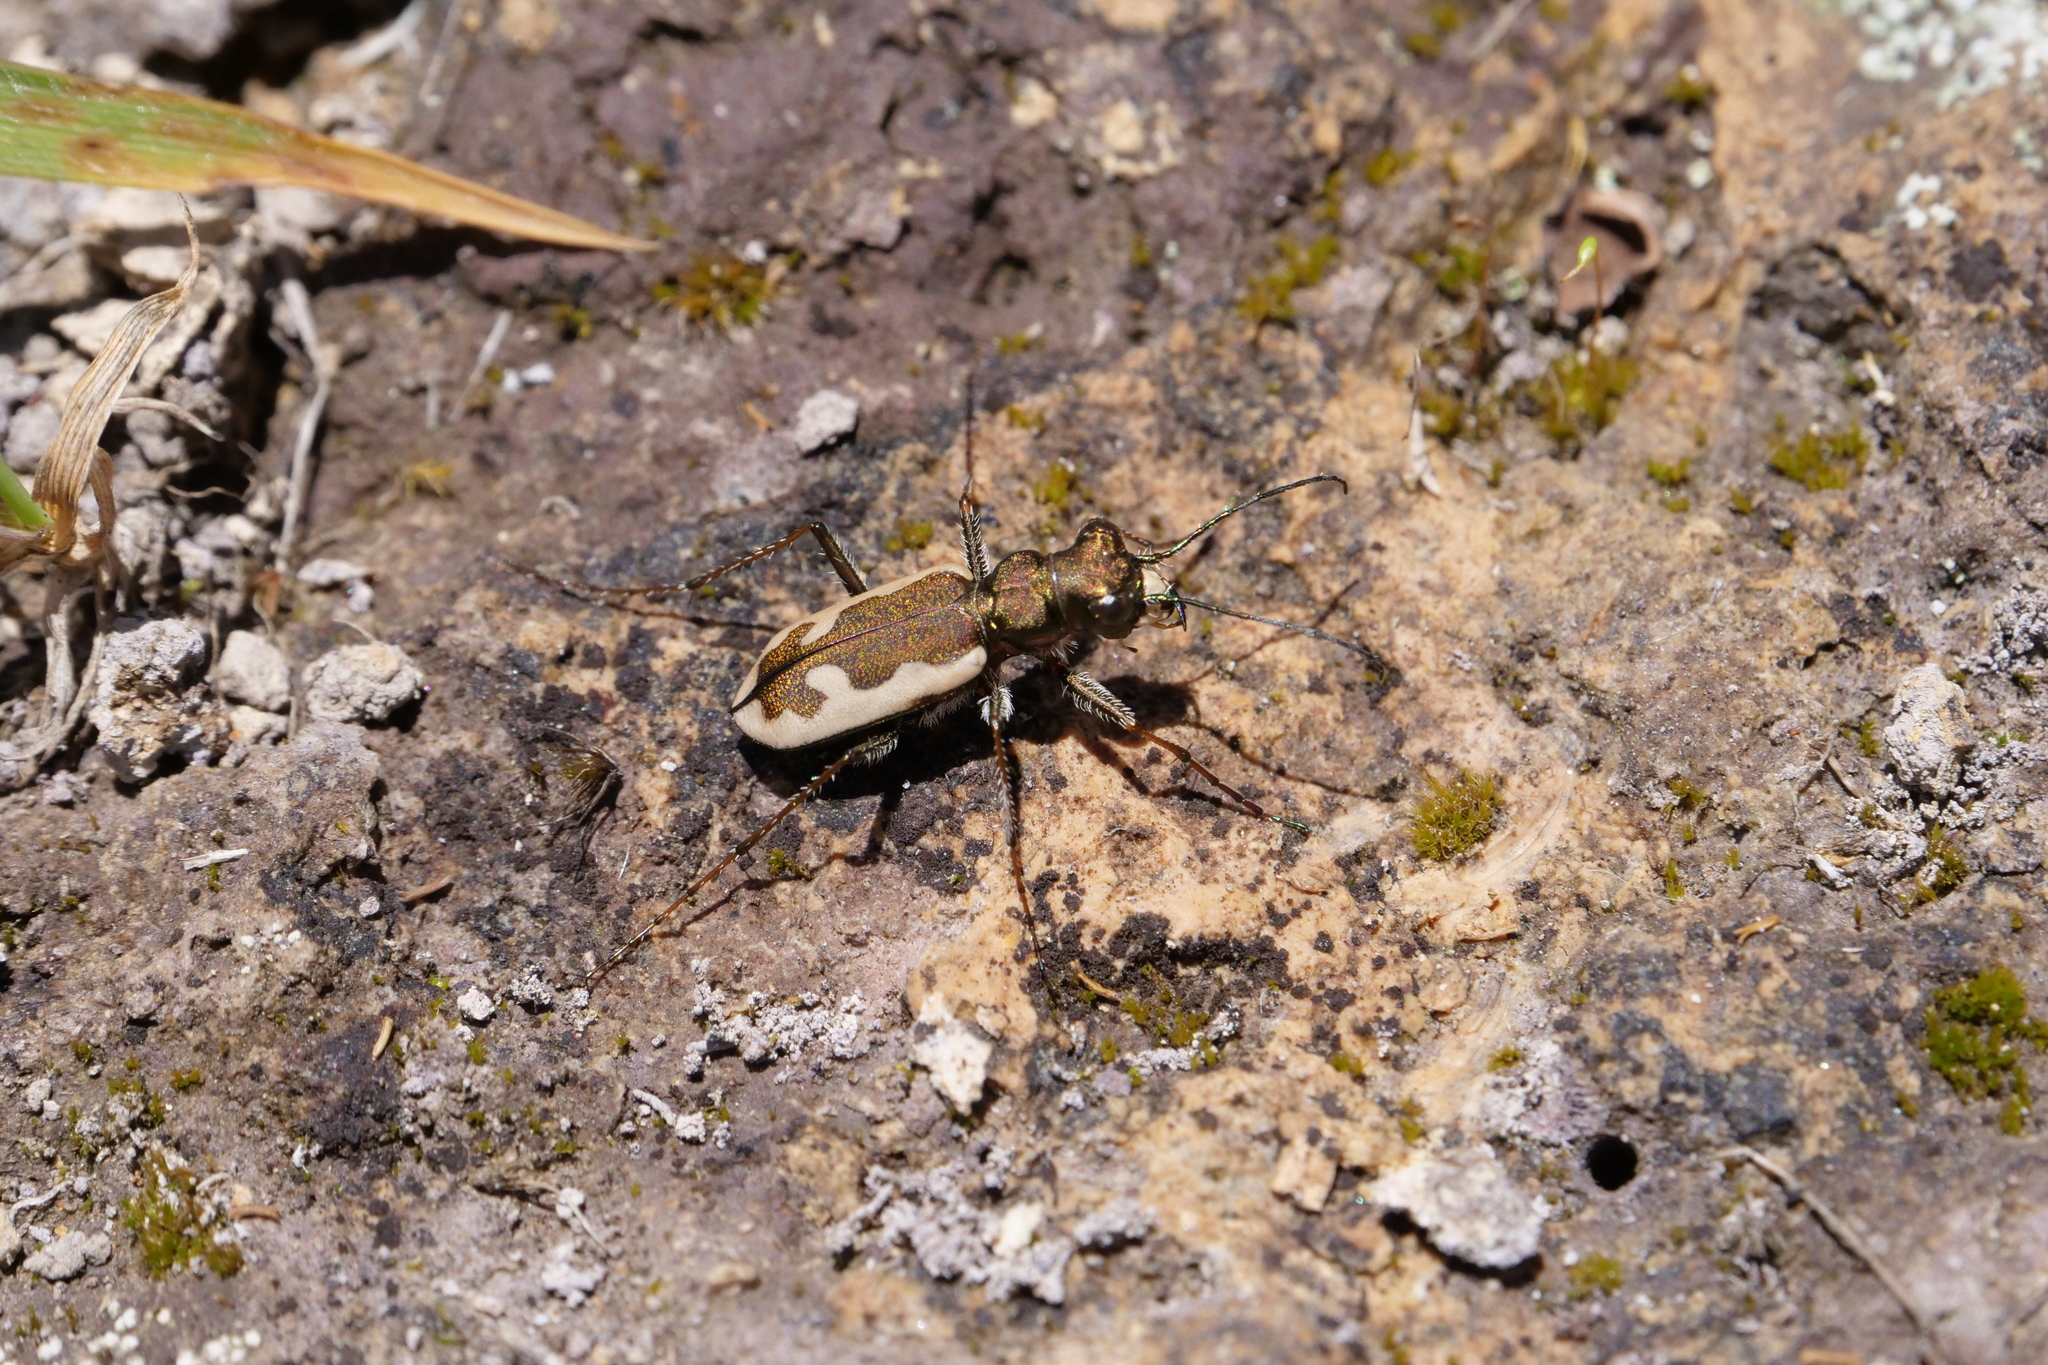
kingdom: Animalia
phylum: Arthropoda
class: Insecta
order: Coleoptera
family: Carabidae
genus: Neocicindela
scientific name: Neocicindela latecincta
